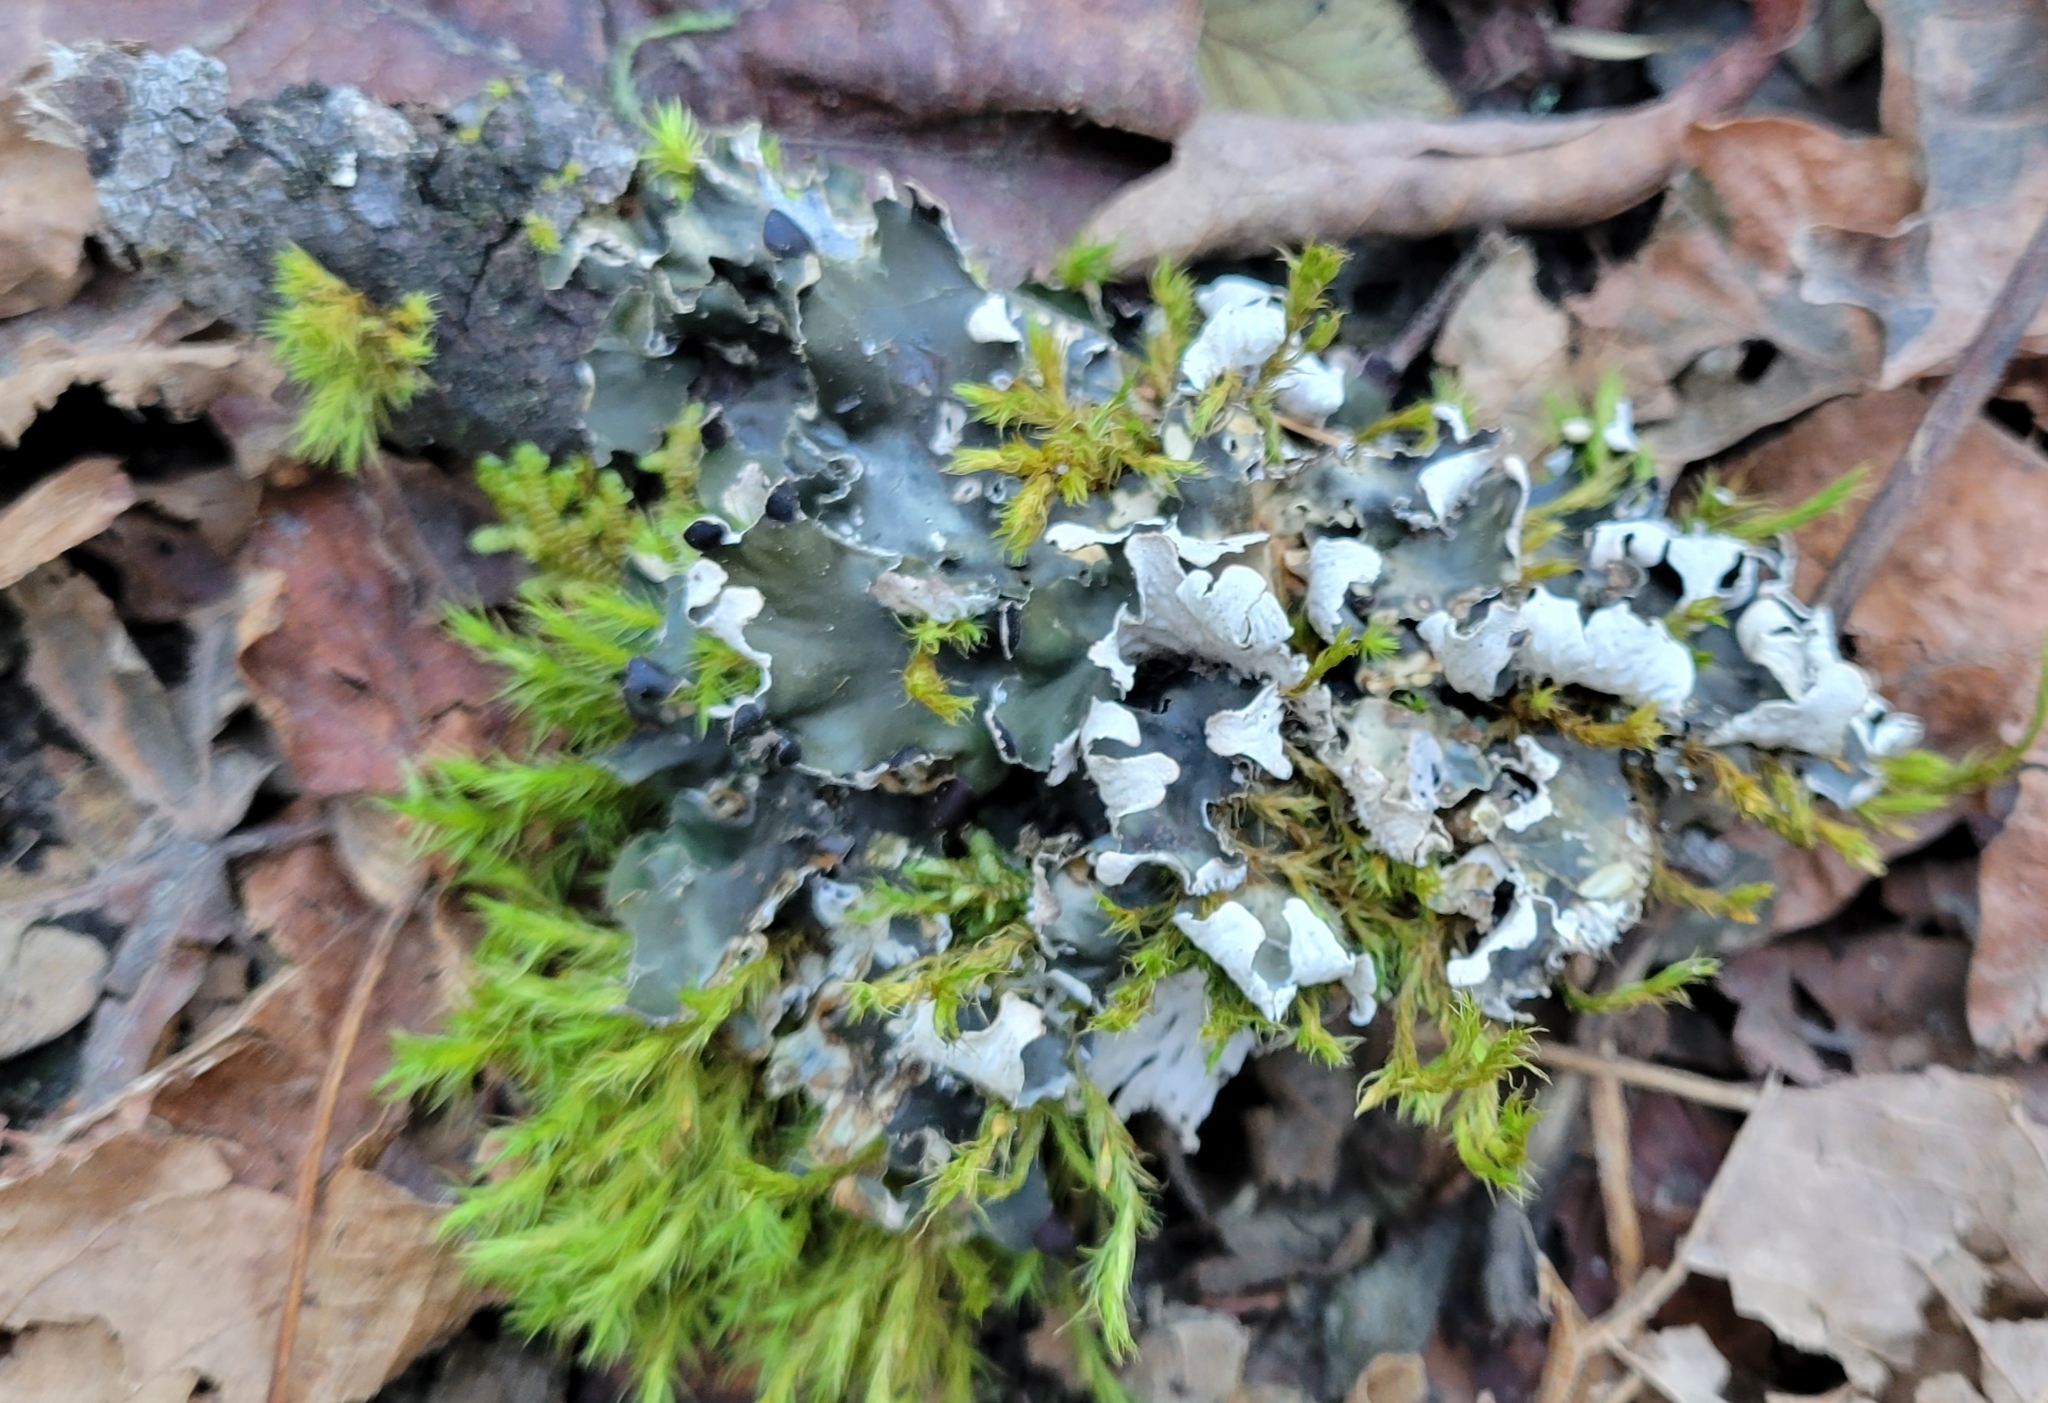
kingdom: Fungi
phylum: Ascomycota
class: Lecanoromycetes
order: Peltigerales
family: Peltigeraceae
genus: Peltigera
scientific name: Peltigera collina
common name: Gritty tree pelt lichen
